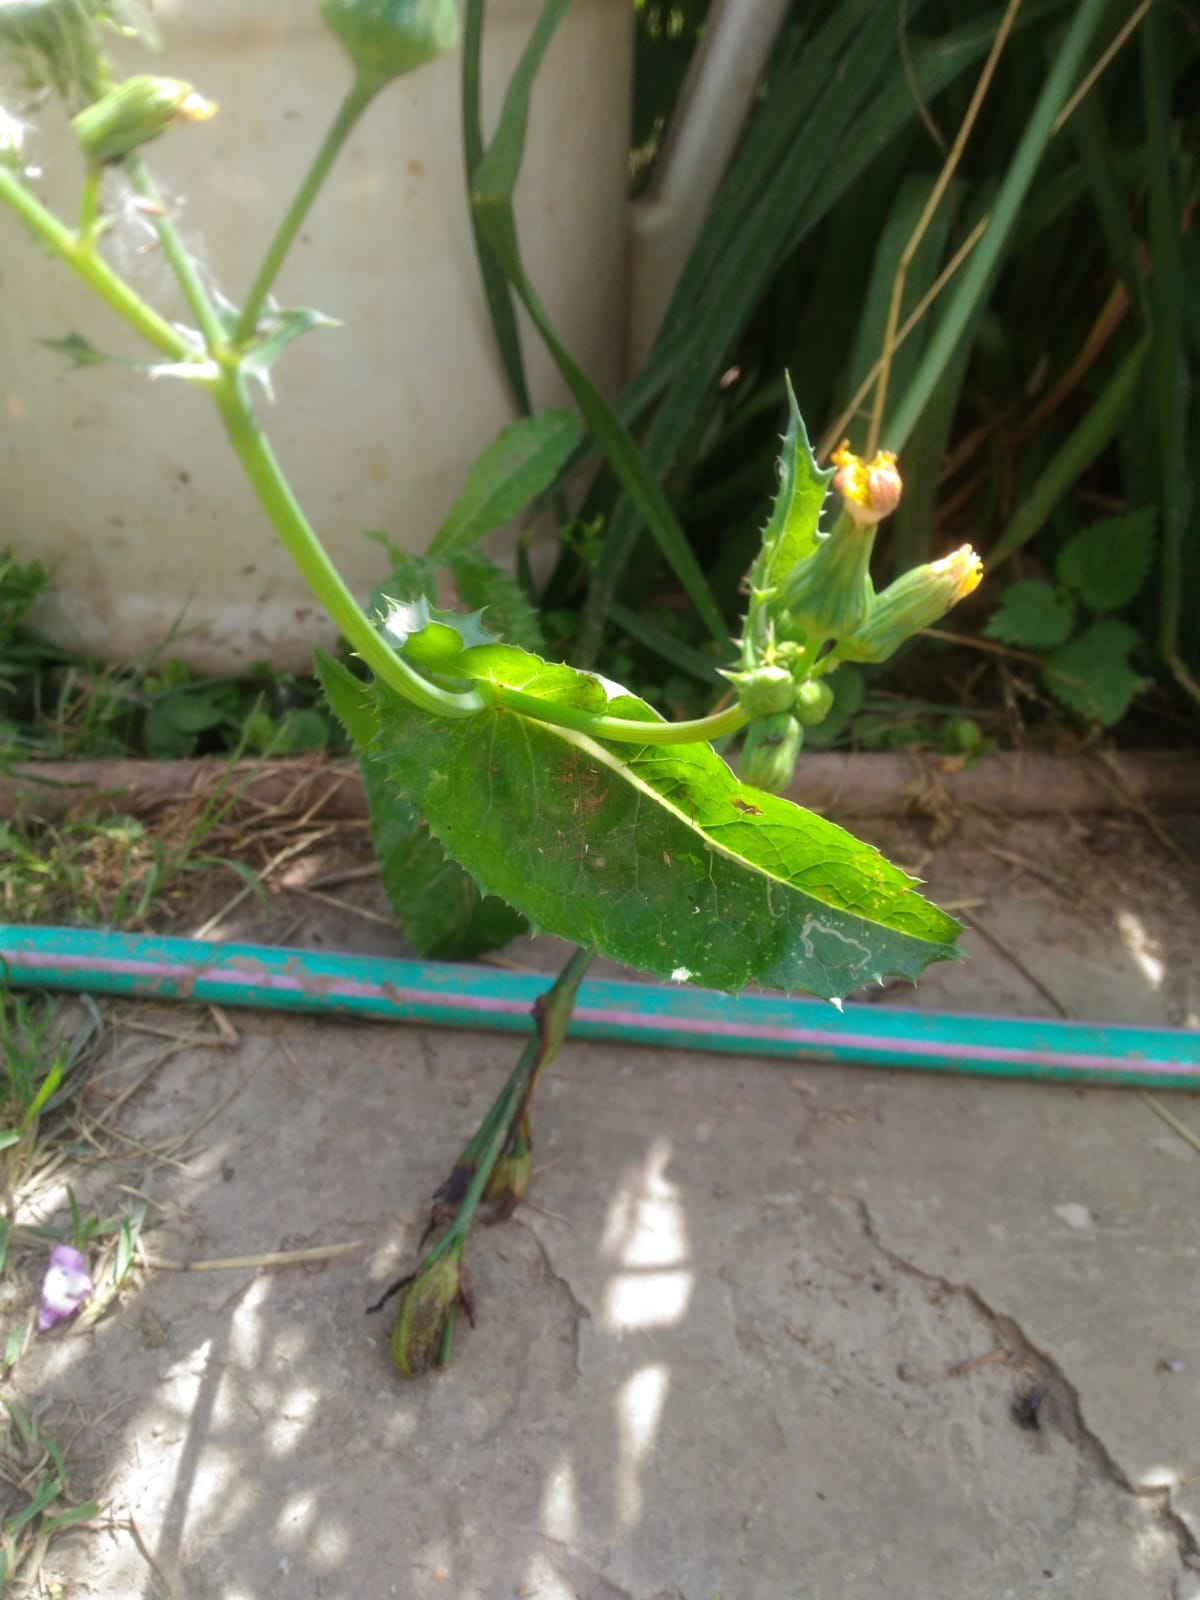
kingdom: Plantae
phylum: Tracheophyta
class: Magnoliopsida
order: Asterales
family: Asteraceae
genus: Sonchus
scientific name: Sonchus asper
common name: Prickly sow-thistle
